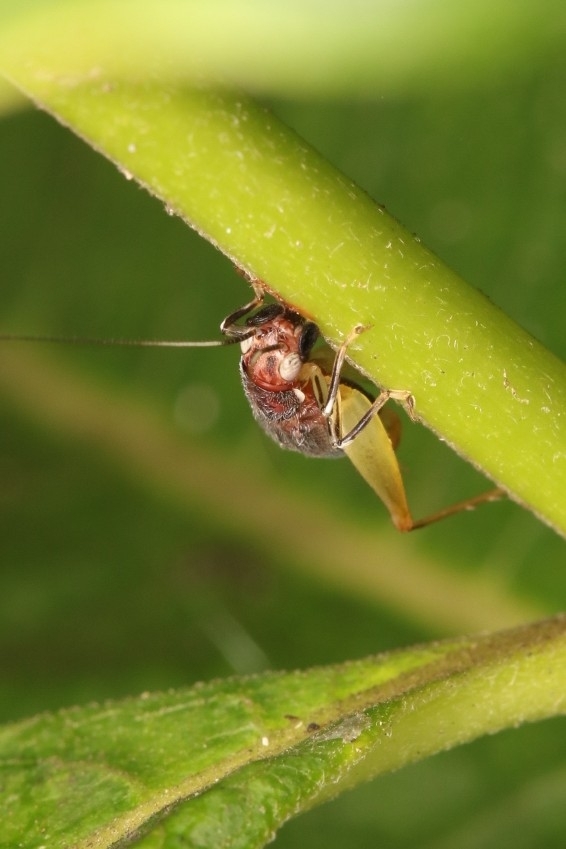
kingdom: Animalia
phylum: Arthropoda
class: Insecta
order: Orthoptera
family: Trigonidiidae
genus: Phyllopalpus
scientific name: Phyllopalpus pulchellus
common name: Handsome trig
